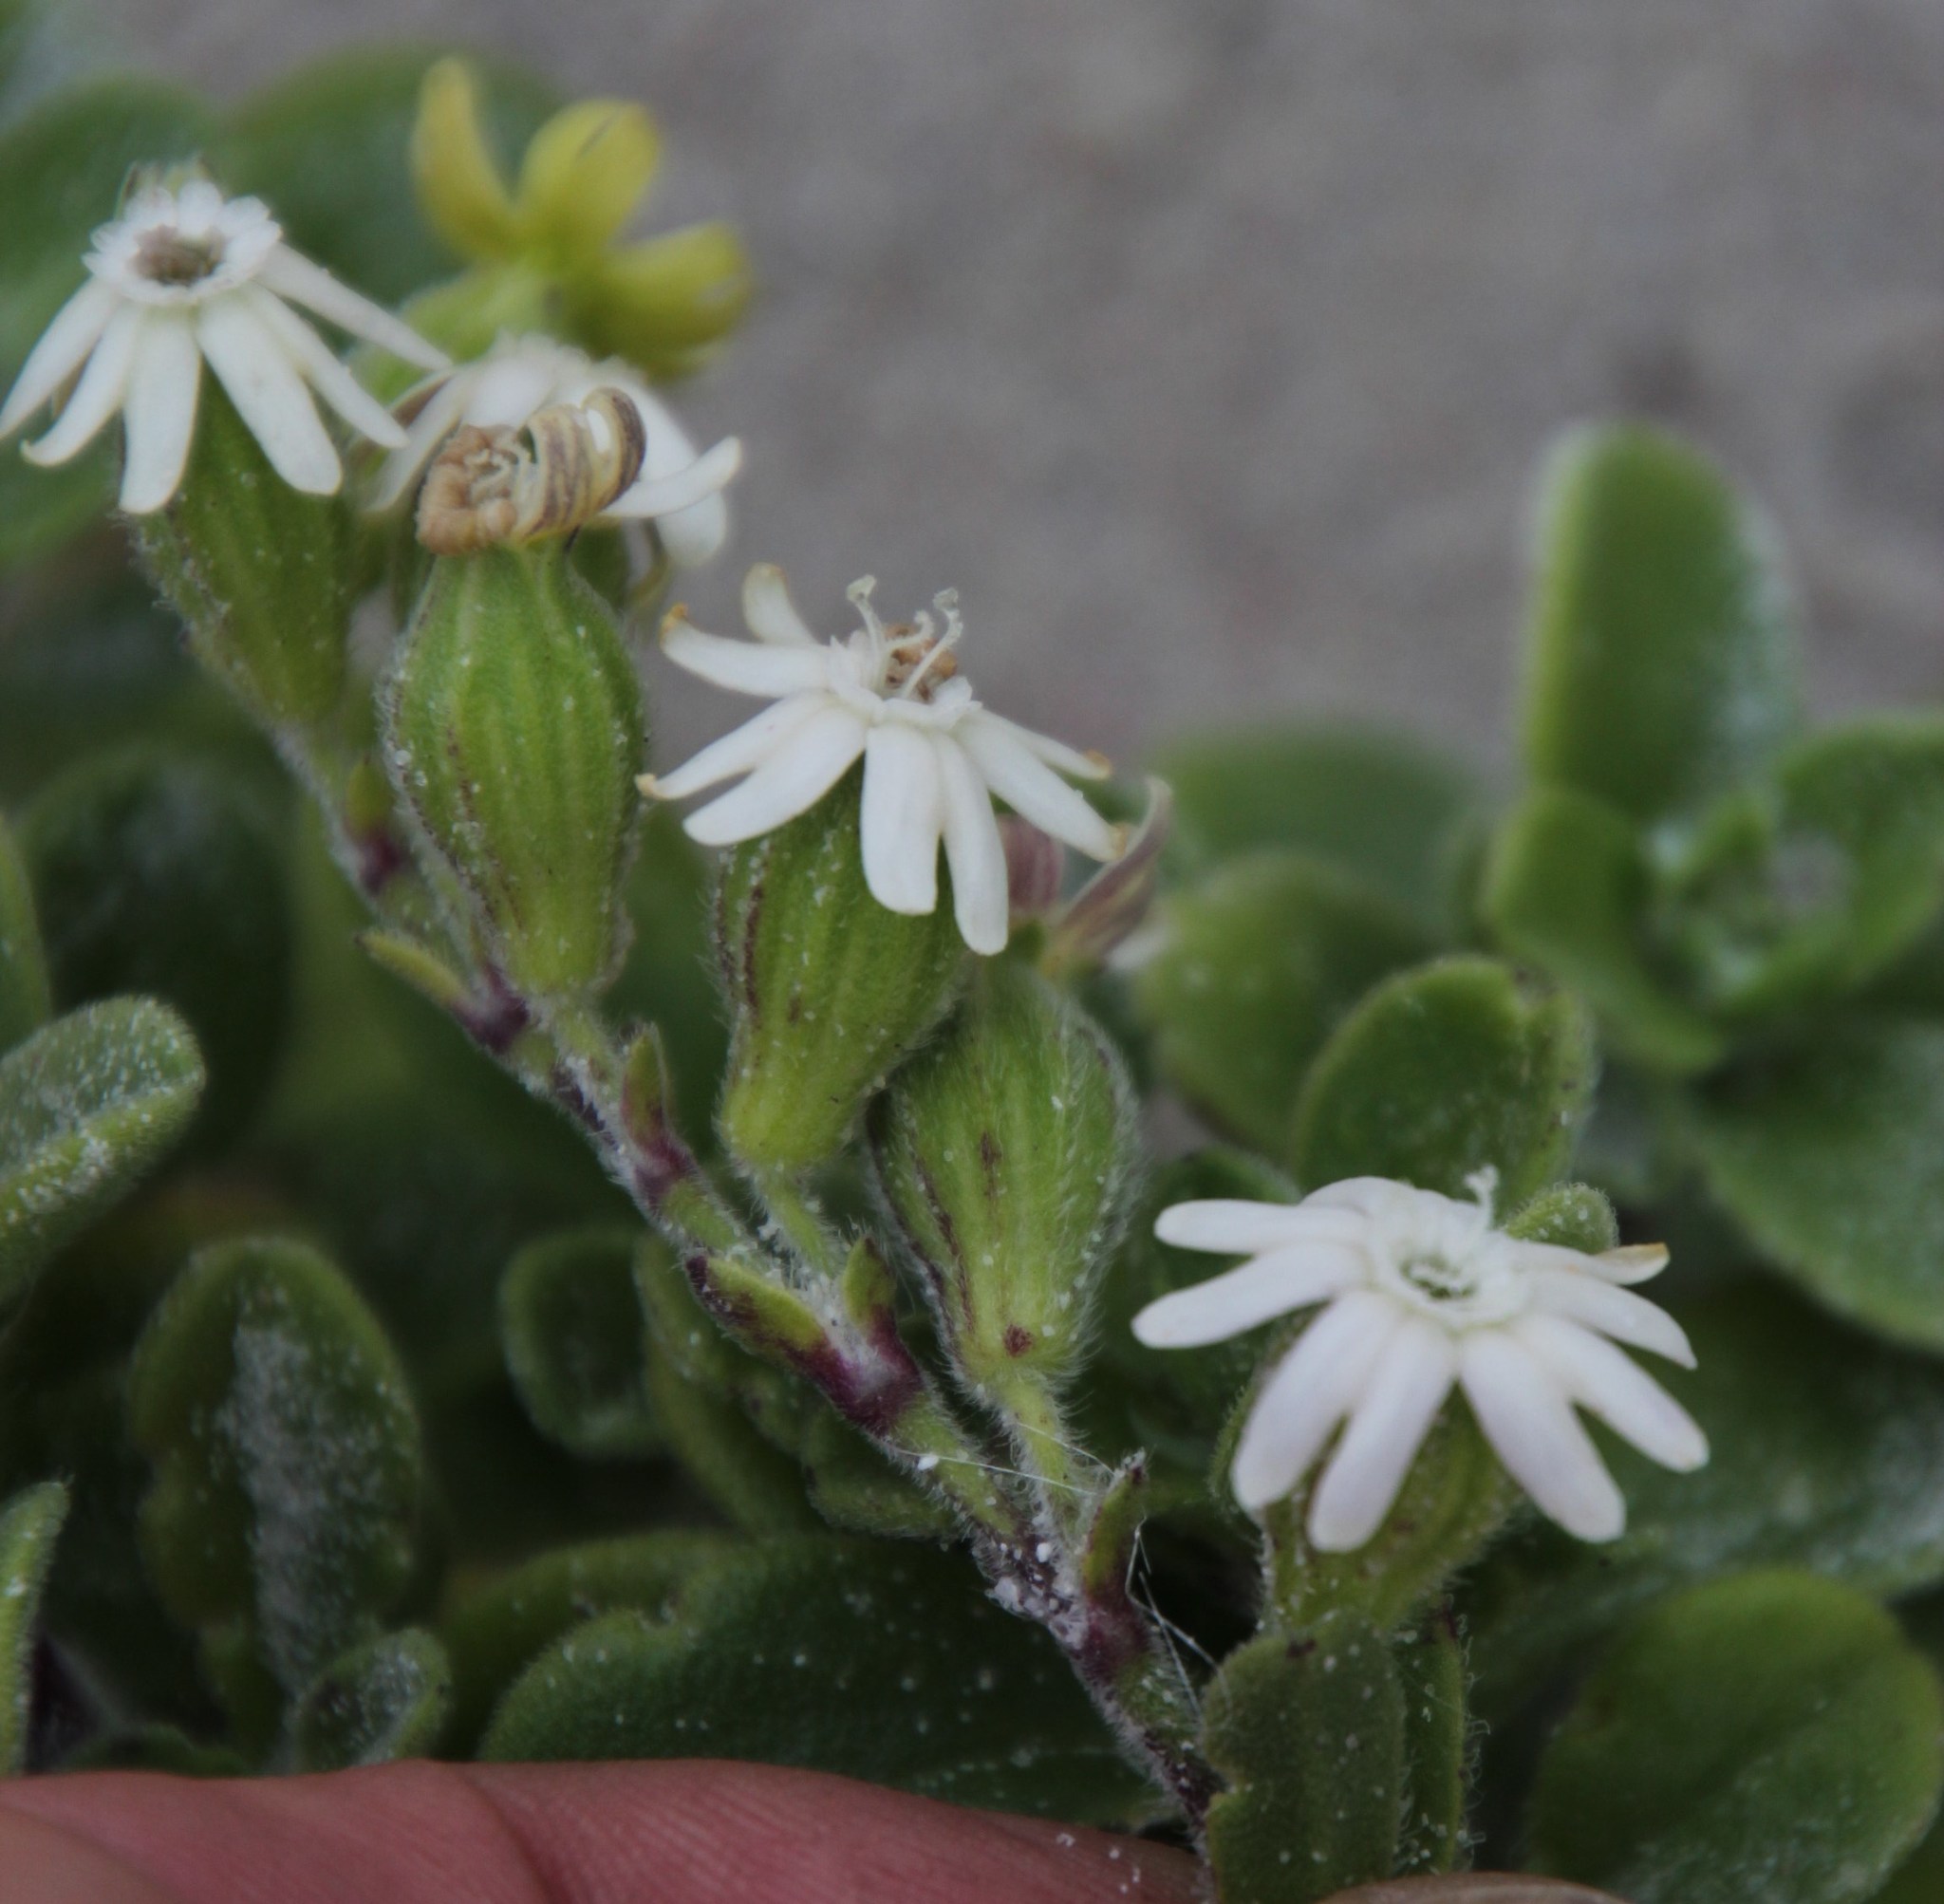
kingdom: Plantae
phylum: Tracheophyta
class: Magnoliopsida
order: Caryophyllales
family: Caryophyllaceae
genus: Silene
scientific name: Silene crassifolia
